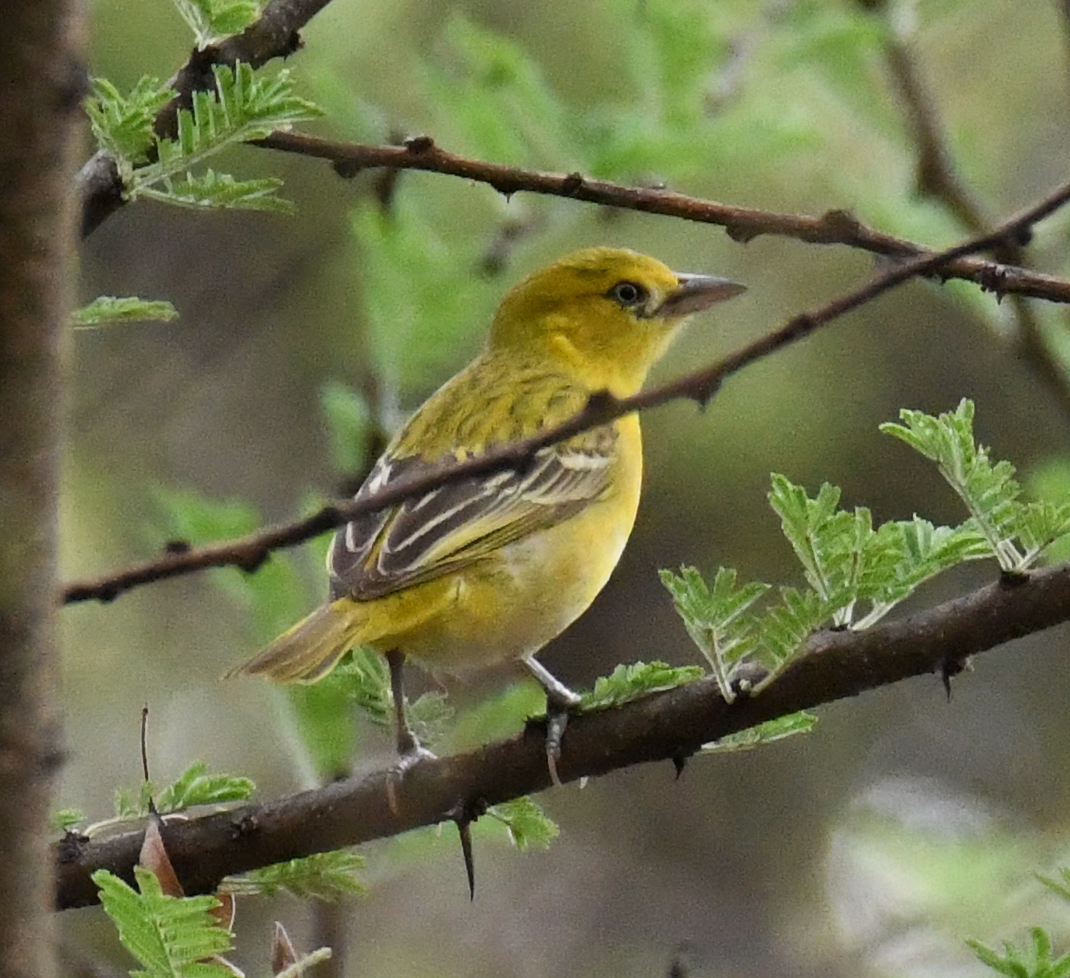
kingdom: Animalia
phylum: Chordata
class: Aves
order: Passeriformes
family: Ploceidae
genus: Ploceus
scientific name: Ploceus intermedius
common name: Lesser masked weaver
